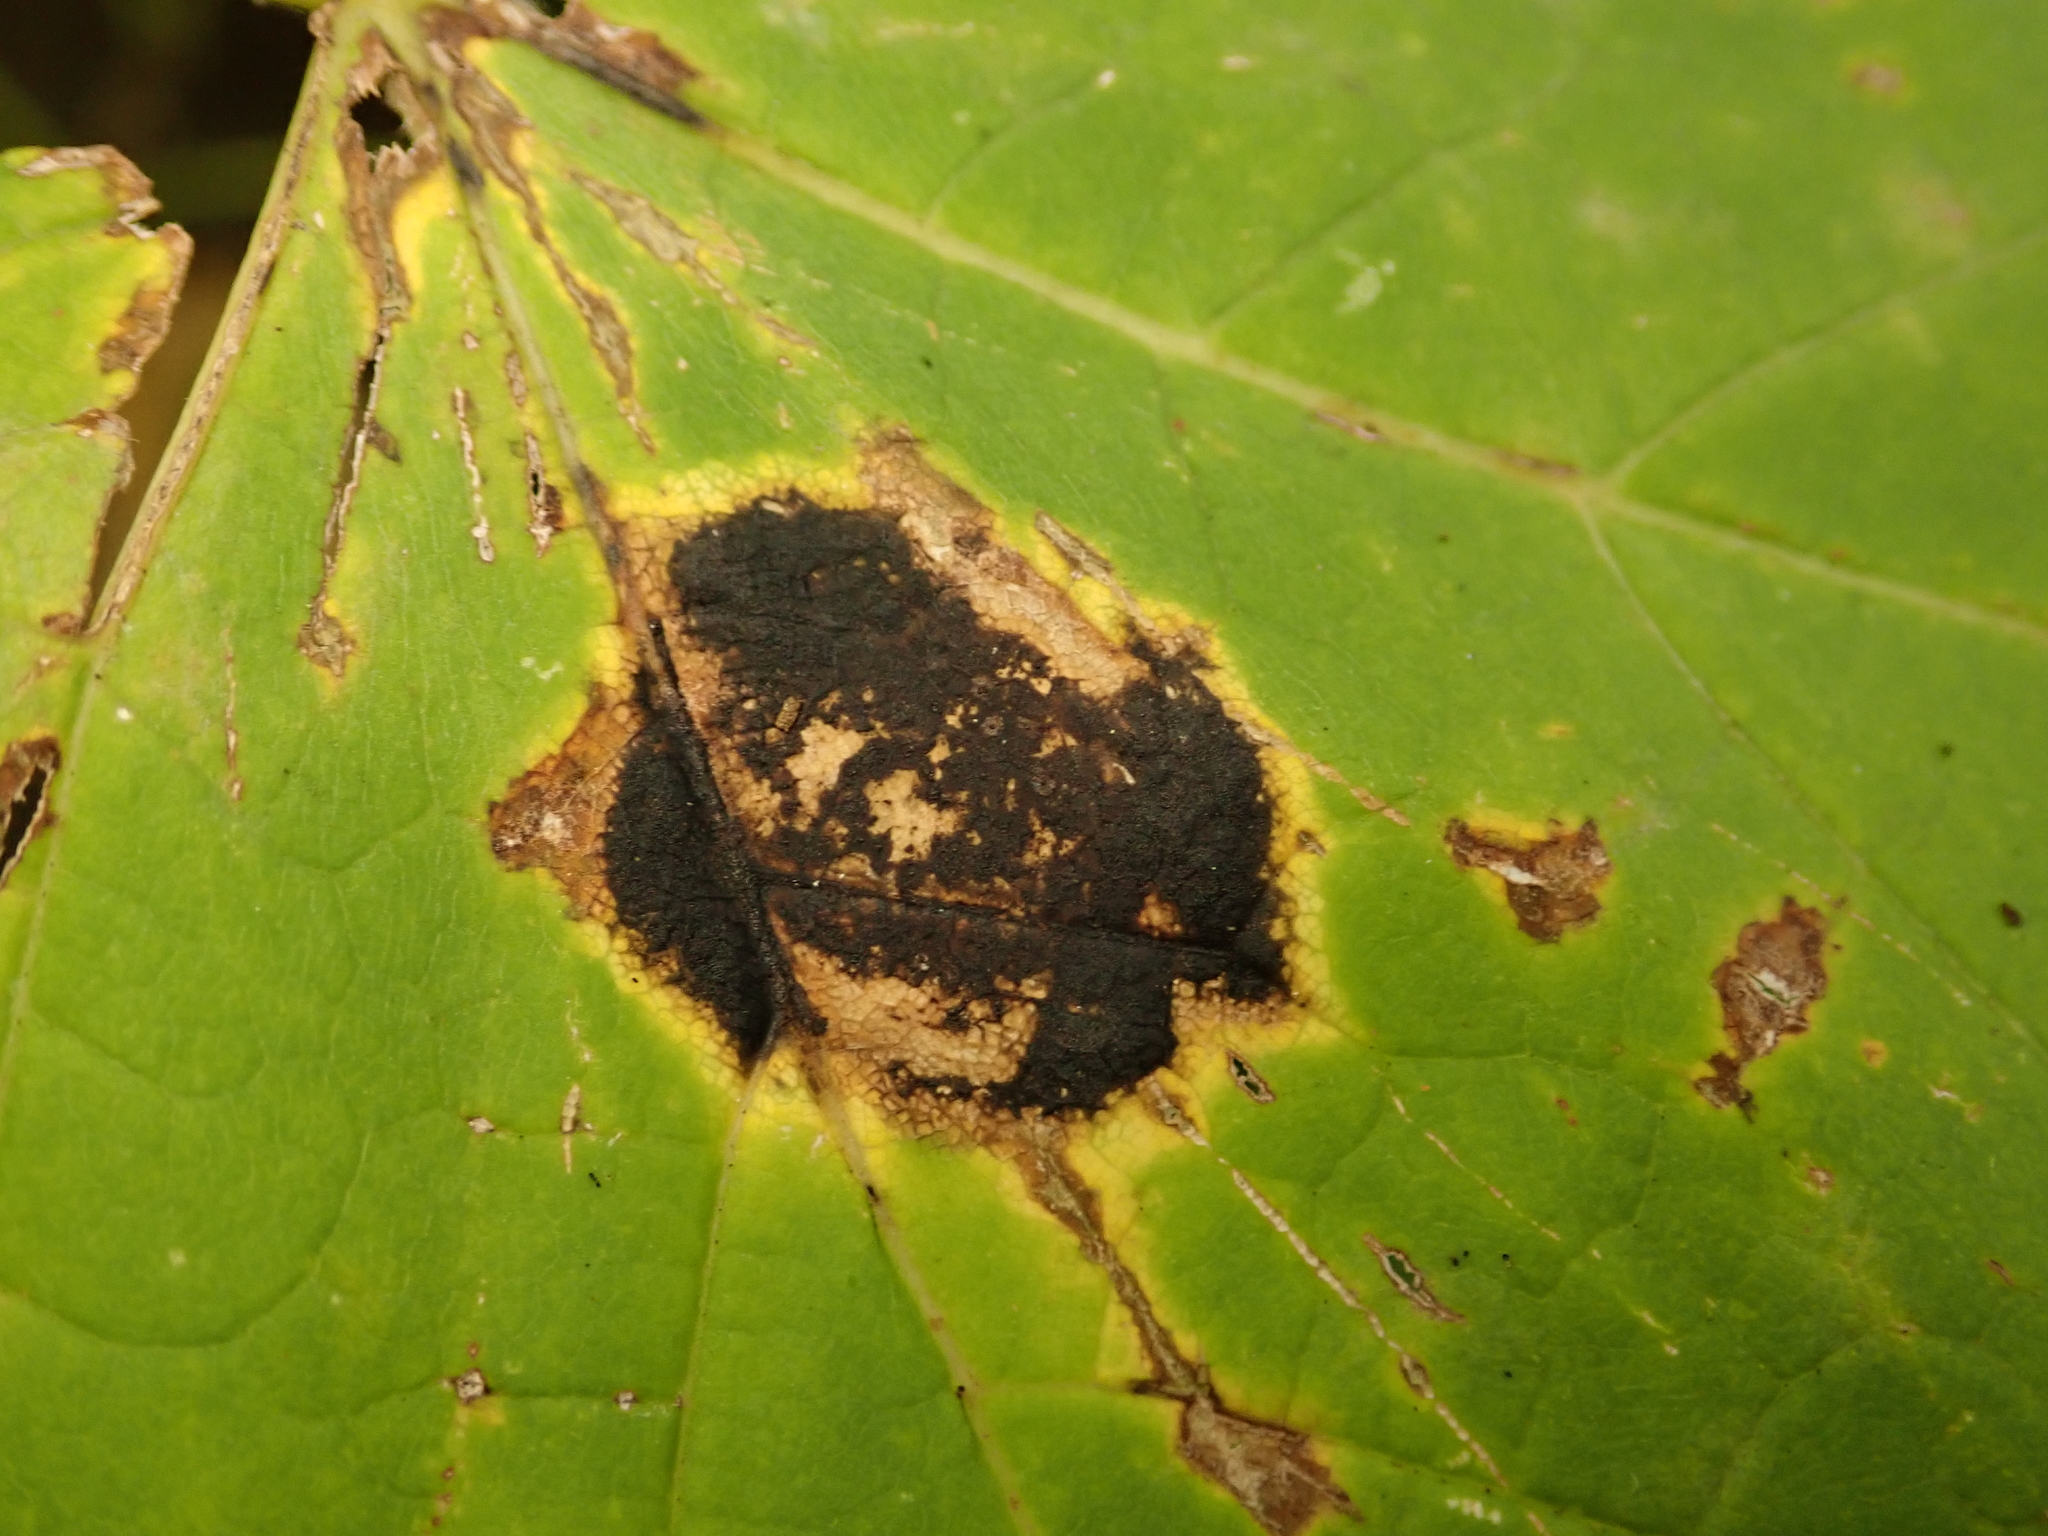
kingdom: Fungi
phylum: Ascomycota
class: Leotiomycetes
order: Rhytismatales
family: Rhytismataceae
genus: Rhytisma
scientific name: Rhytisma acerinum
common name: European tar spot
